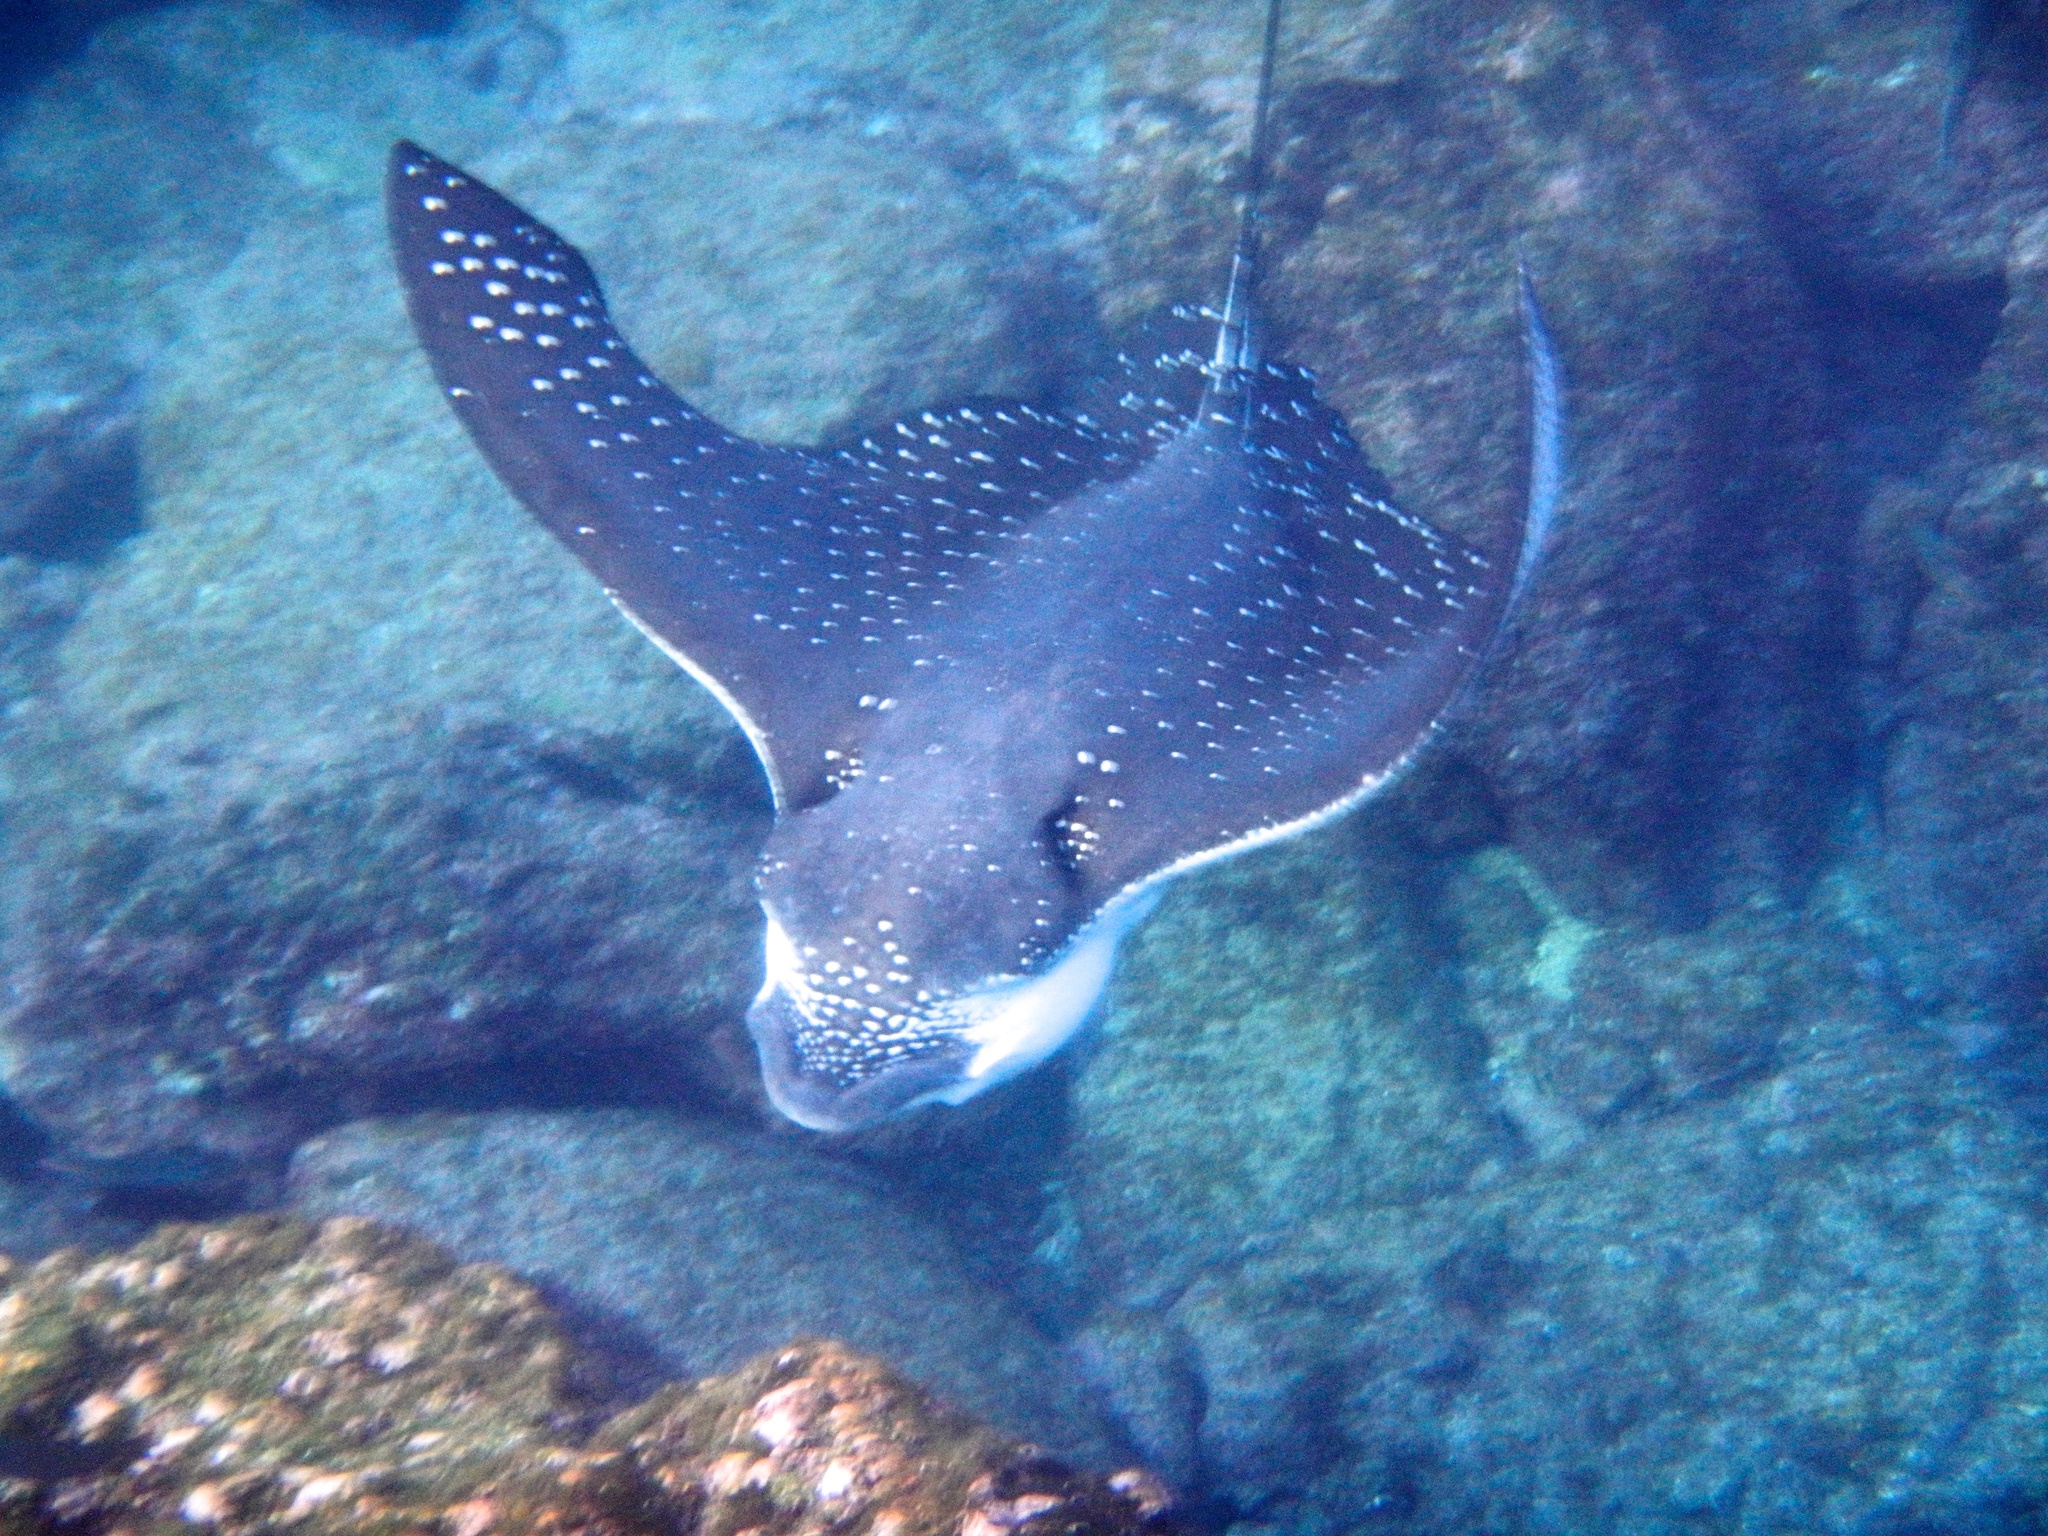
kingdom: Animalia
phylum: Chordata
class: Elasmobranchii
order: Myliobatiformes
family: Myliobatidae
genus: Aetobatus
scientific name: Aetobatus ocellatus
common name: Ocellated eagle ray
